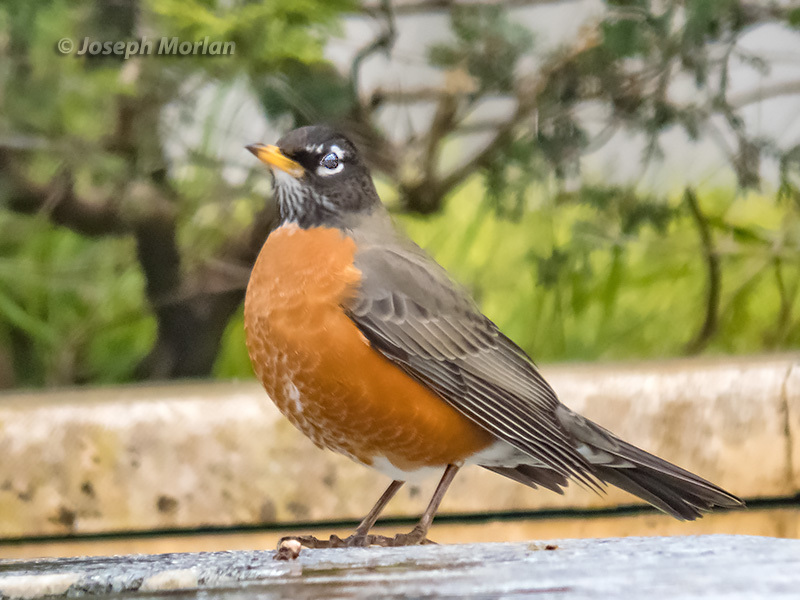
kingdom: Animalia
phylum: Chordata
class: Aves
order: Passeriformes
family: Turdidae
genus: Turdus
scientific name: Turdus migratorius
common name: American robin
